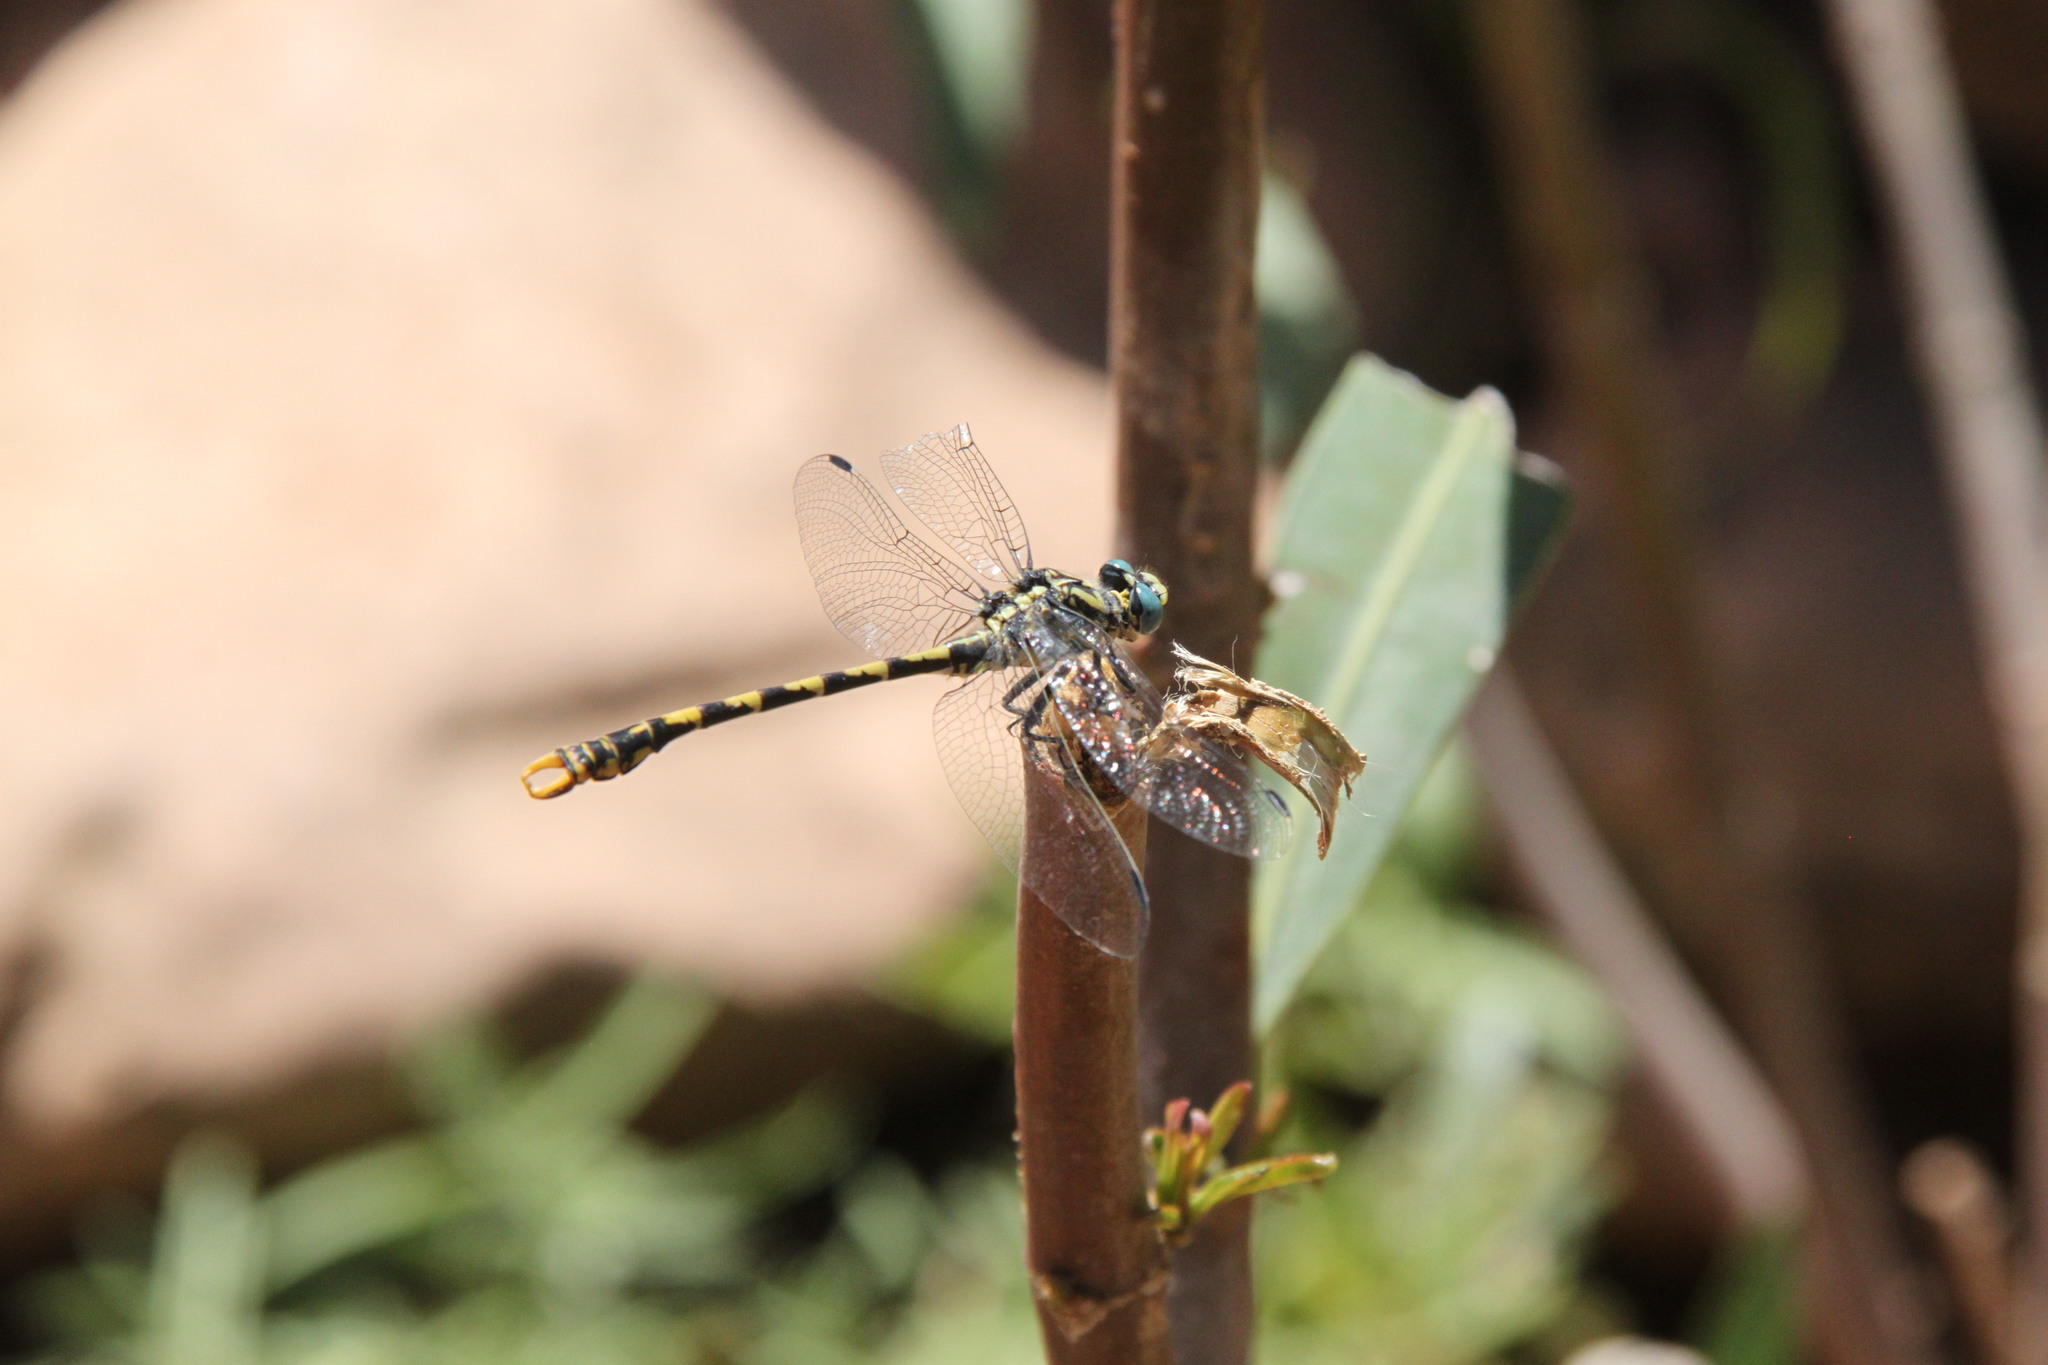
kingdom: Animalia
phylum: Arthropoda
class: Insecta
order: Odonata
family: Gomphidae
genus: Onychogomphus
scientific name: Onychogomphus uncatus
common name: Large pincertail
